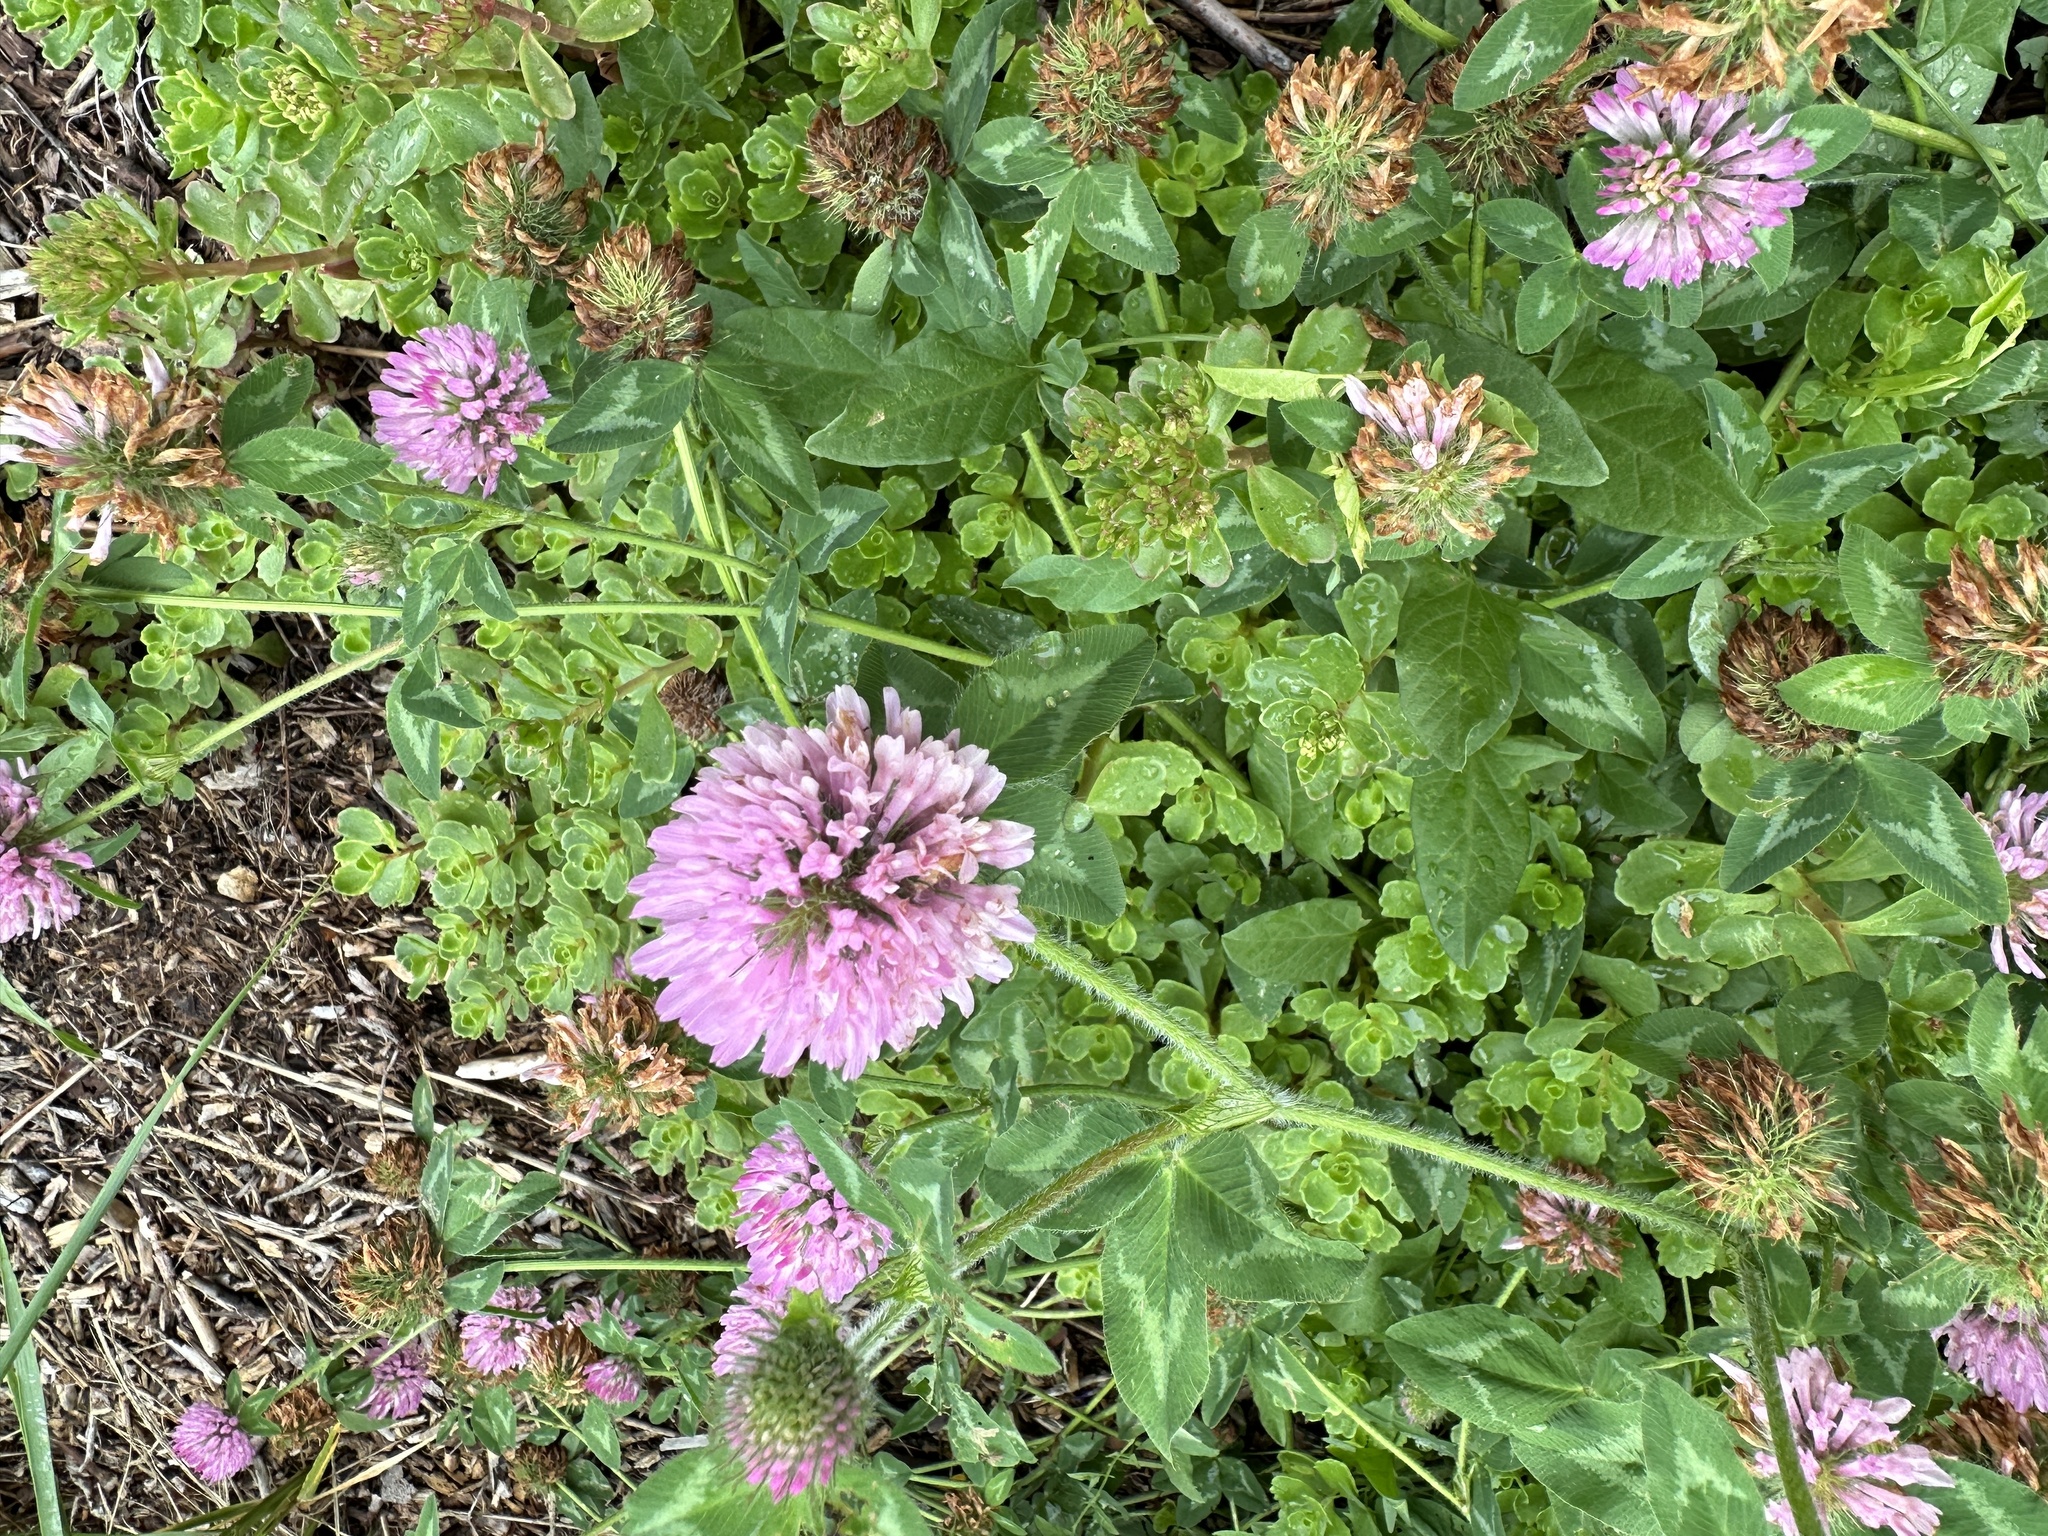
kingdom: Plantae
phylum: Tracheophyta
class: Magnoliopsida
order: Fabales
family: Fabaceae
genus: Trifolium
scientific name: Trifolium pratense
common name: Red clover
